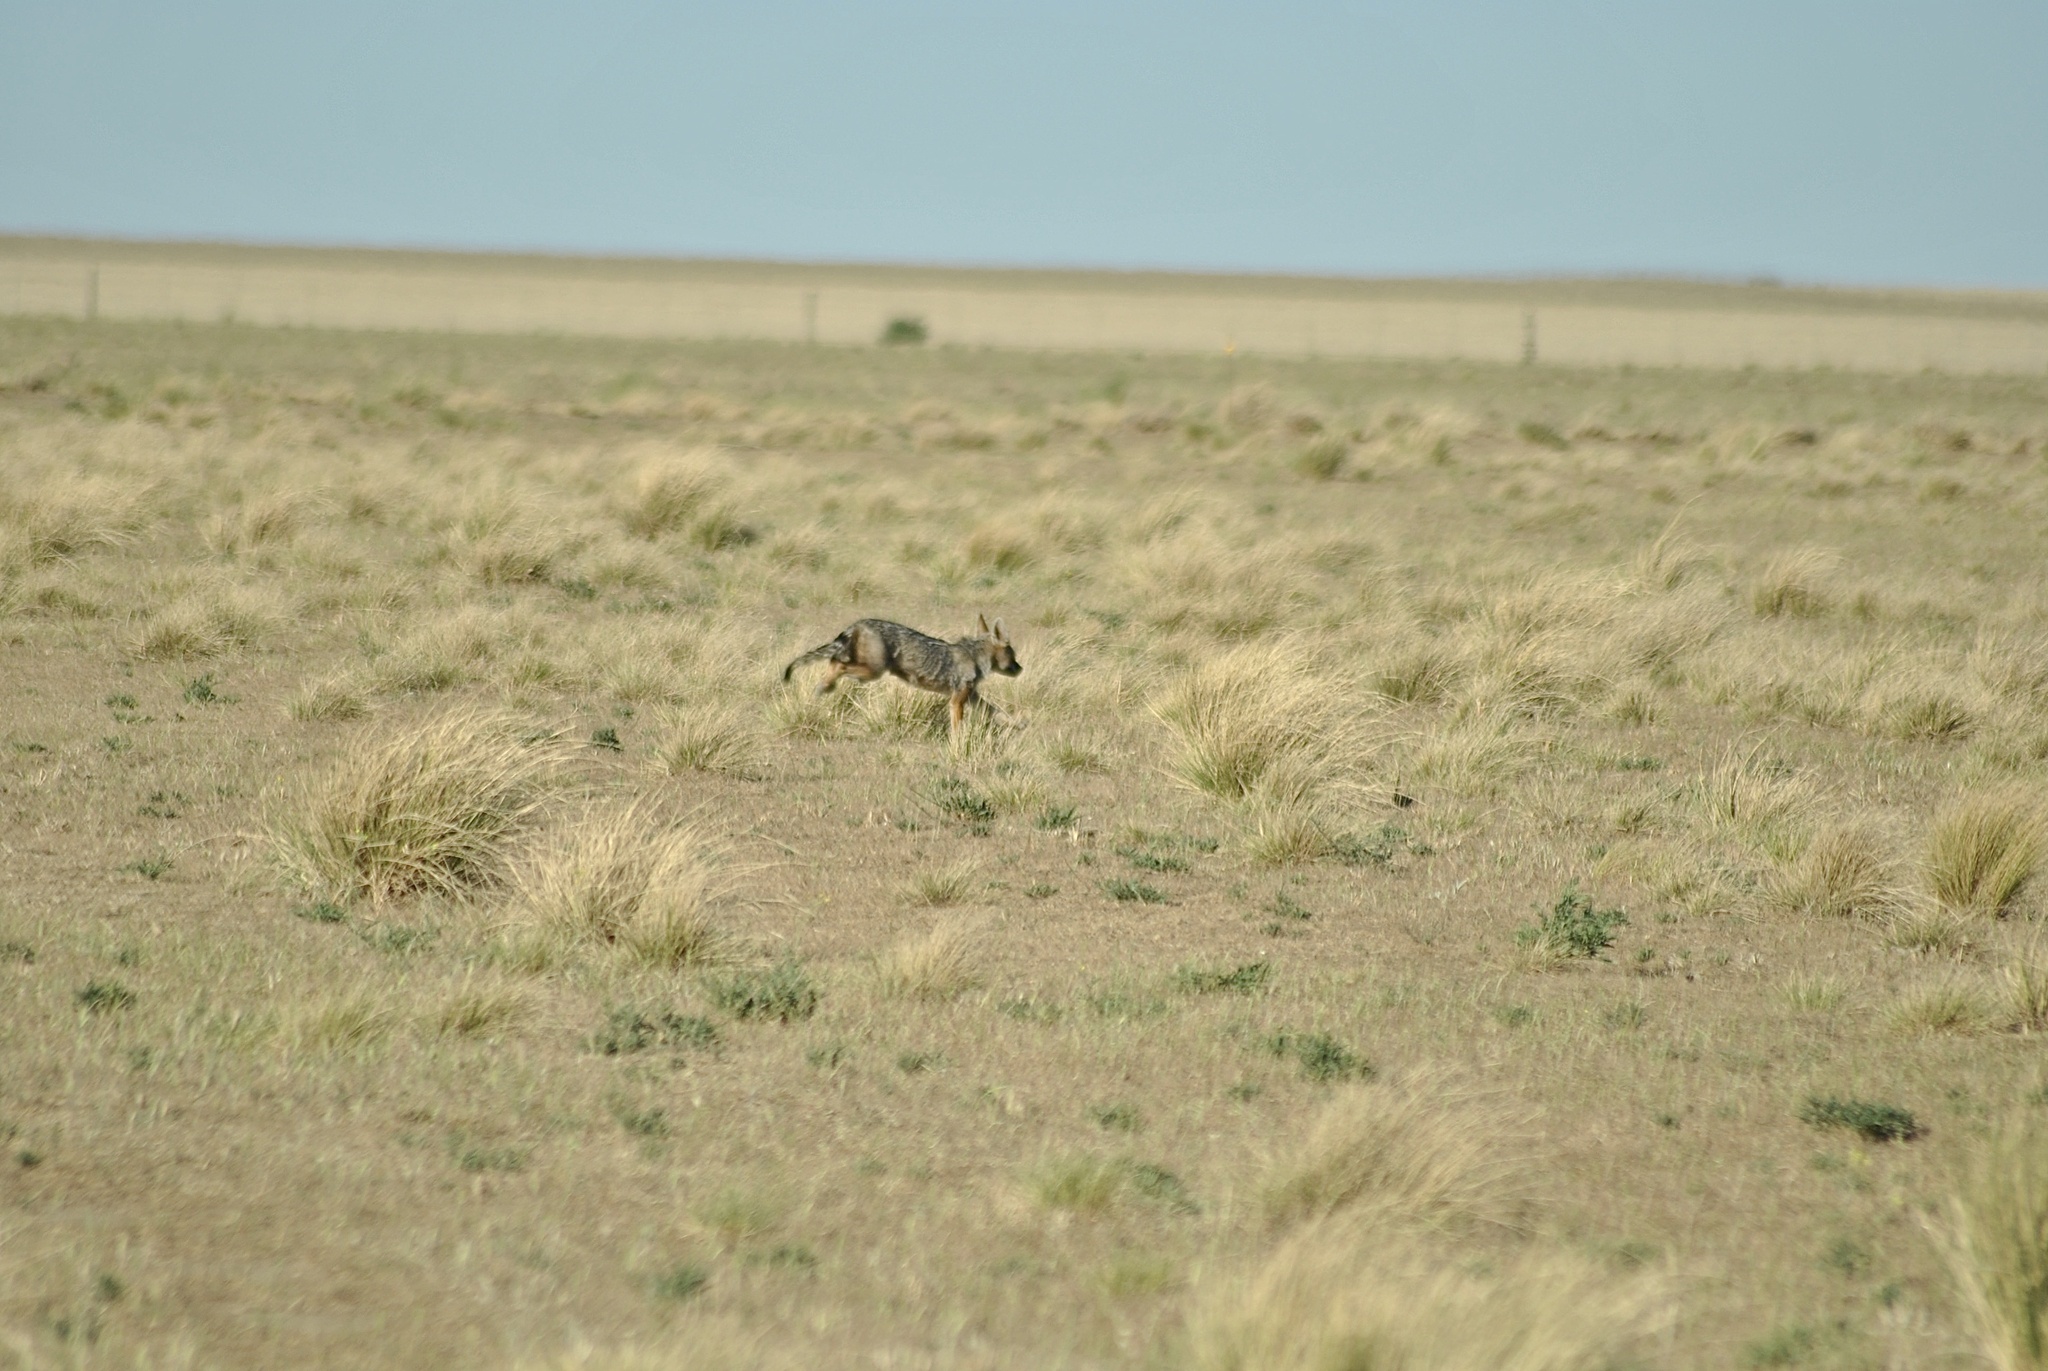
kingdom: Animalia
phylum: Chordata
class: Mammalia
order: Carnivora
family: Canidae
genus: Lycalopex
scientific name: Lycalopex gymnocercus
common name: Pampas fox
